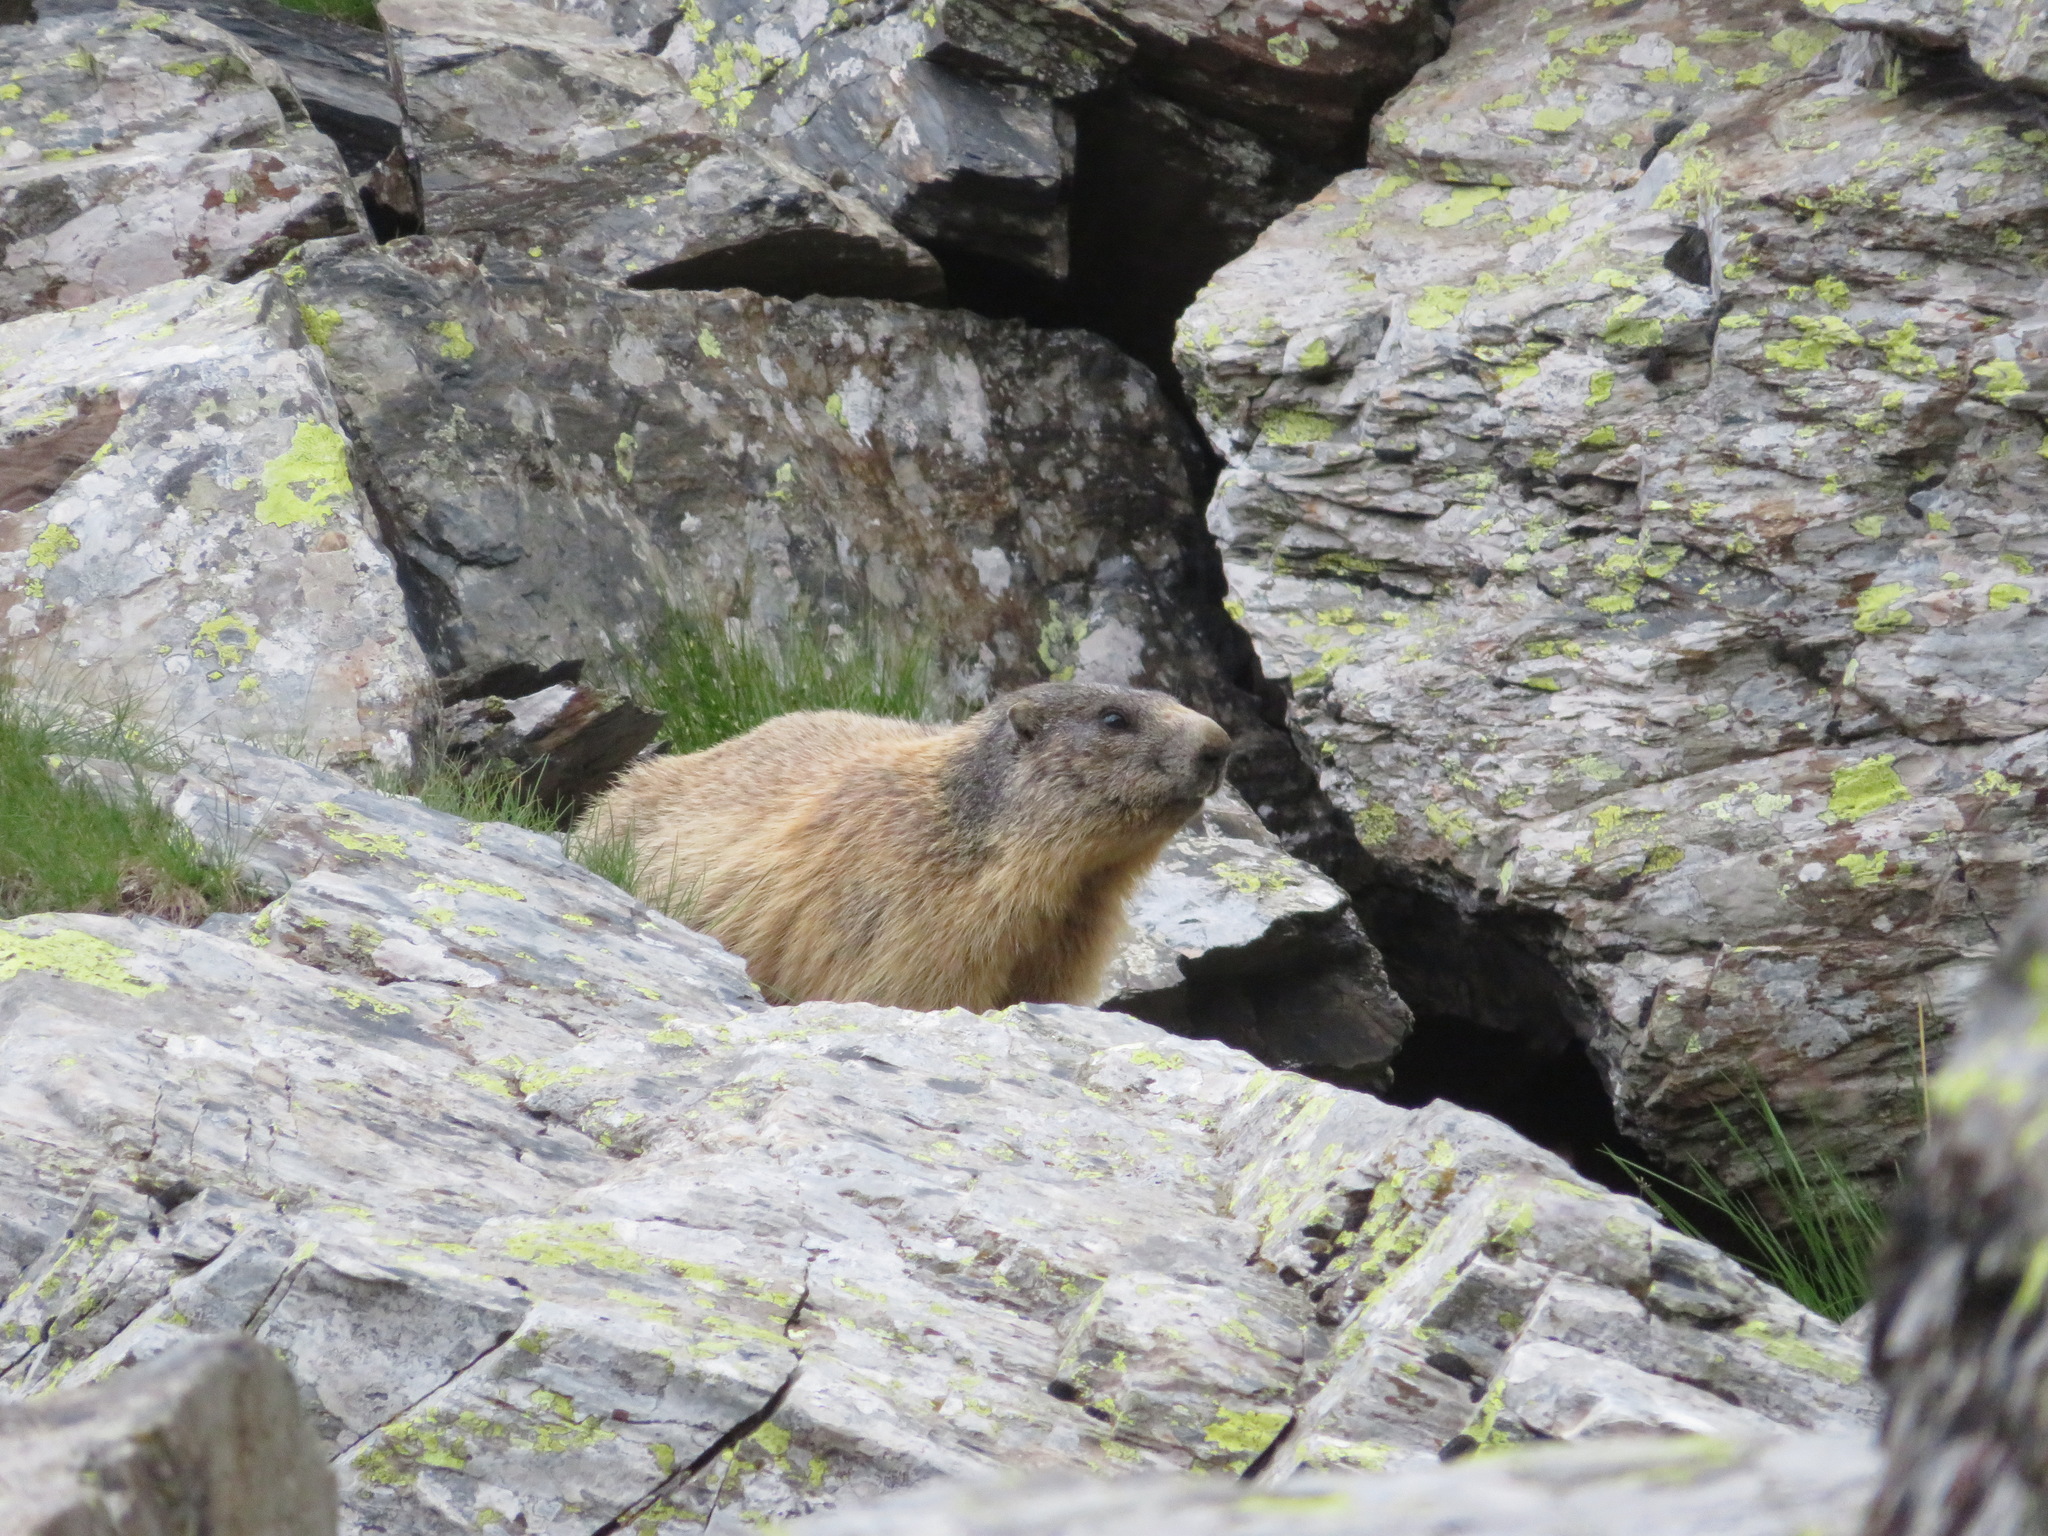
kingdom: Animalia
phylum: Chordata
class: Mammalia
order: Rodentia
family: Sciuridae
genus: Marmota
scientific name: Marmota marmota
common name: Alpine marmot
